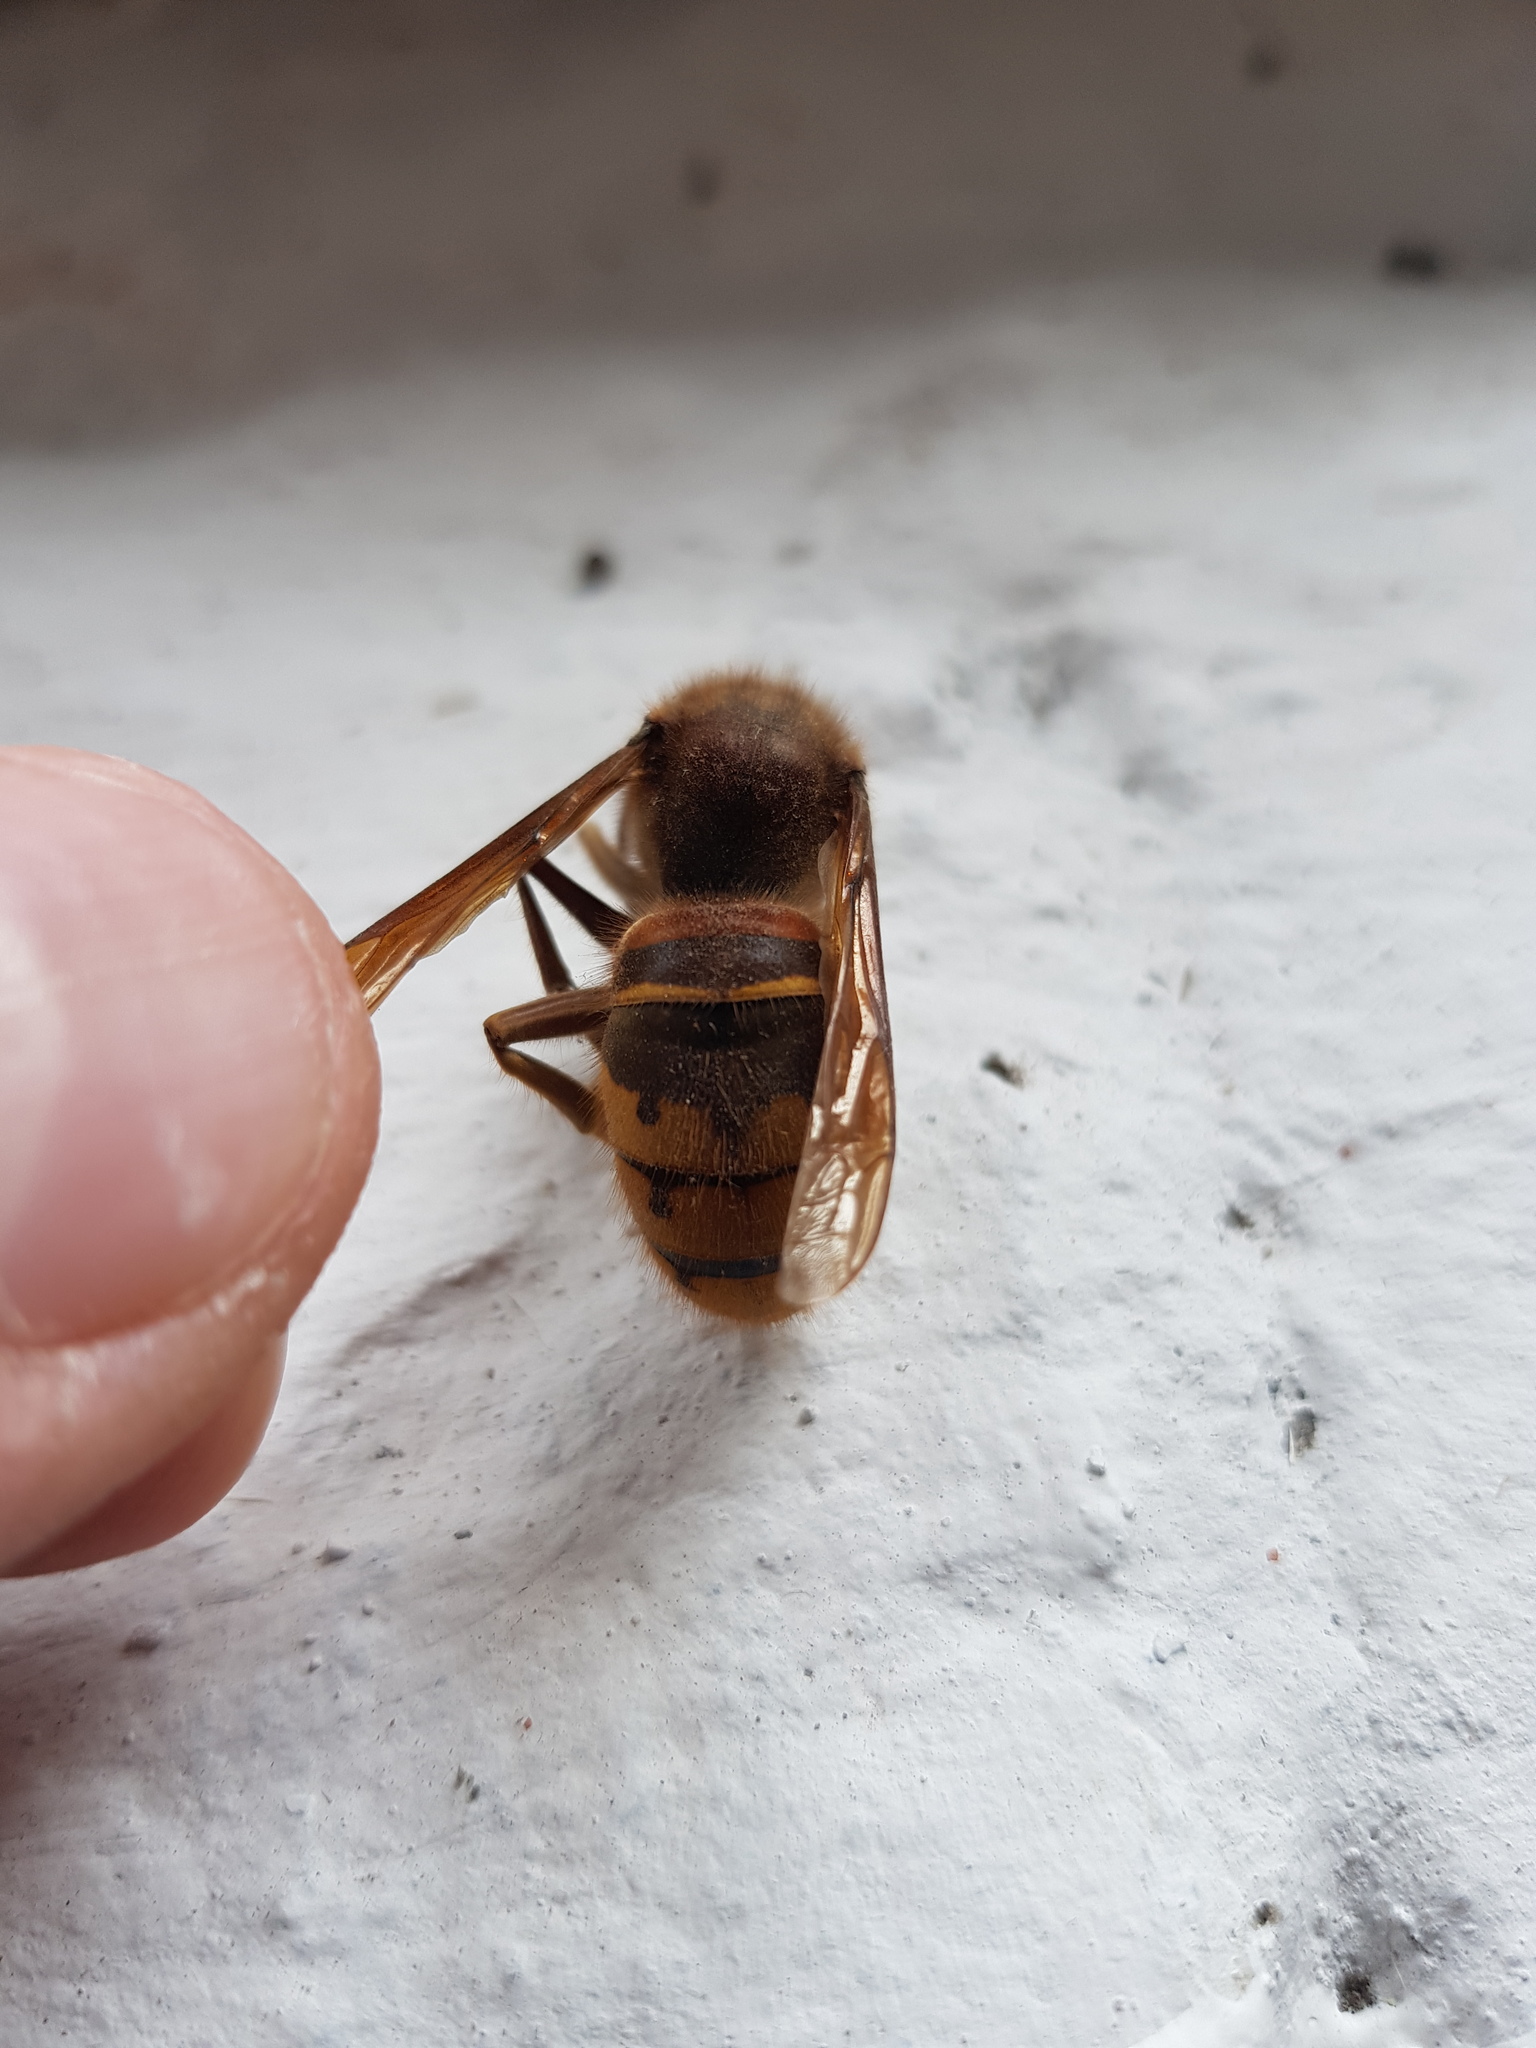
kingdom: Animalia
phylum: Arthropoda
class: Insecta
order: Hymenoptera
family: Vespidae
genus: Vespa
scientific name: Vespa crabro
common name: Hornet
